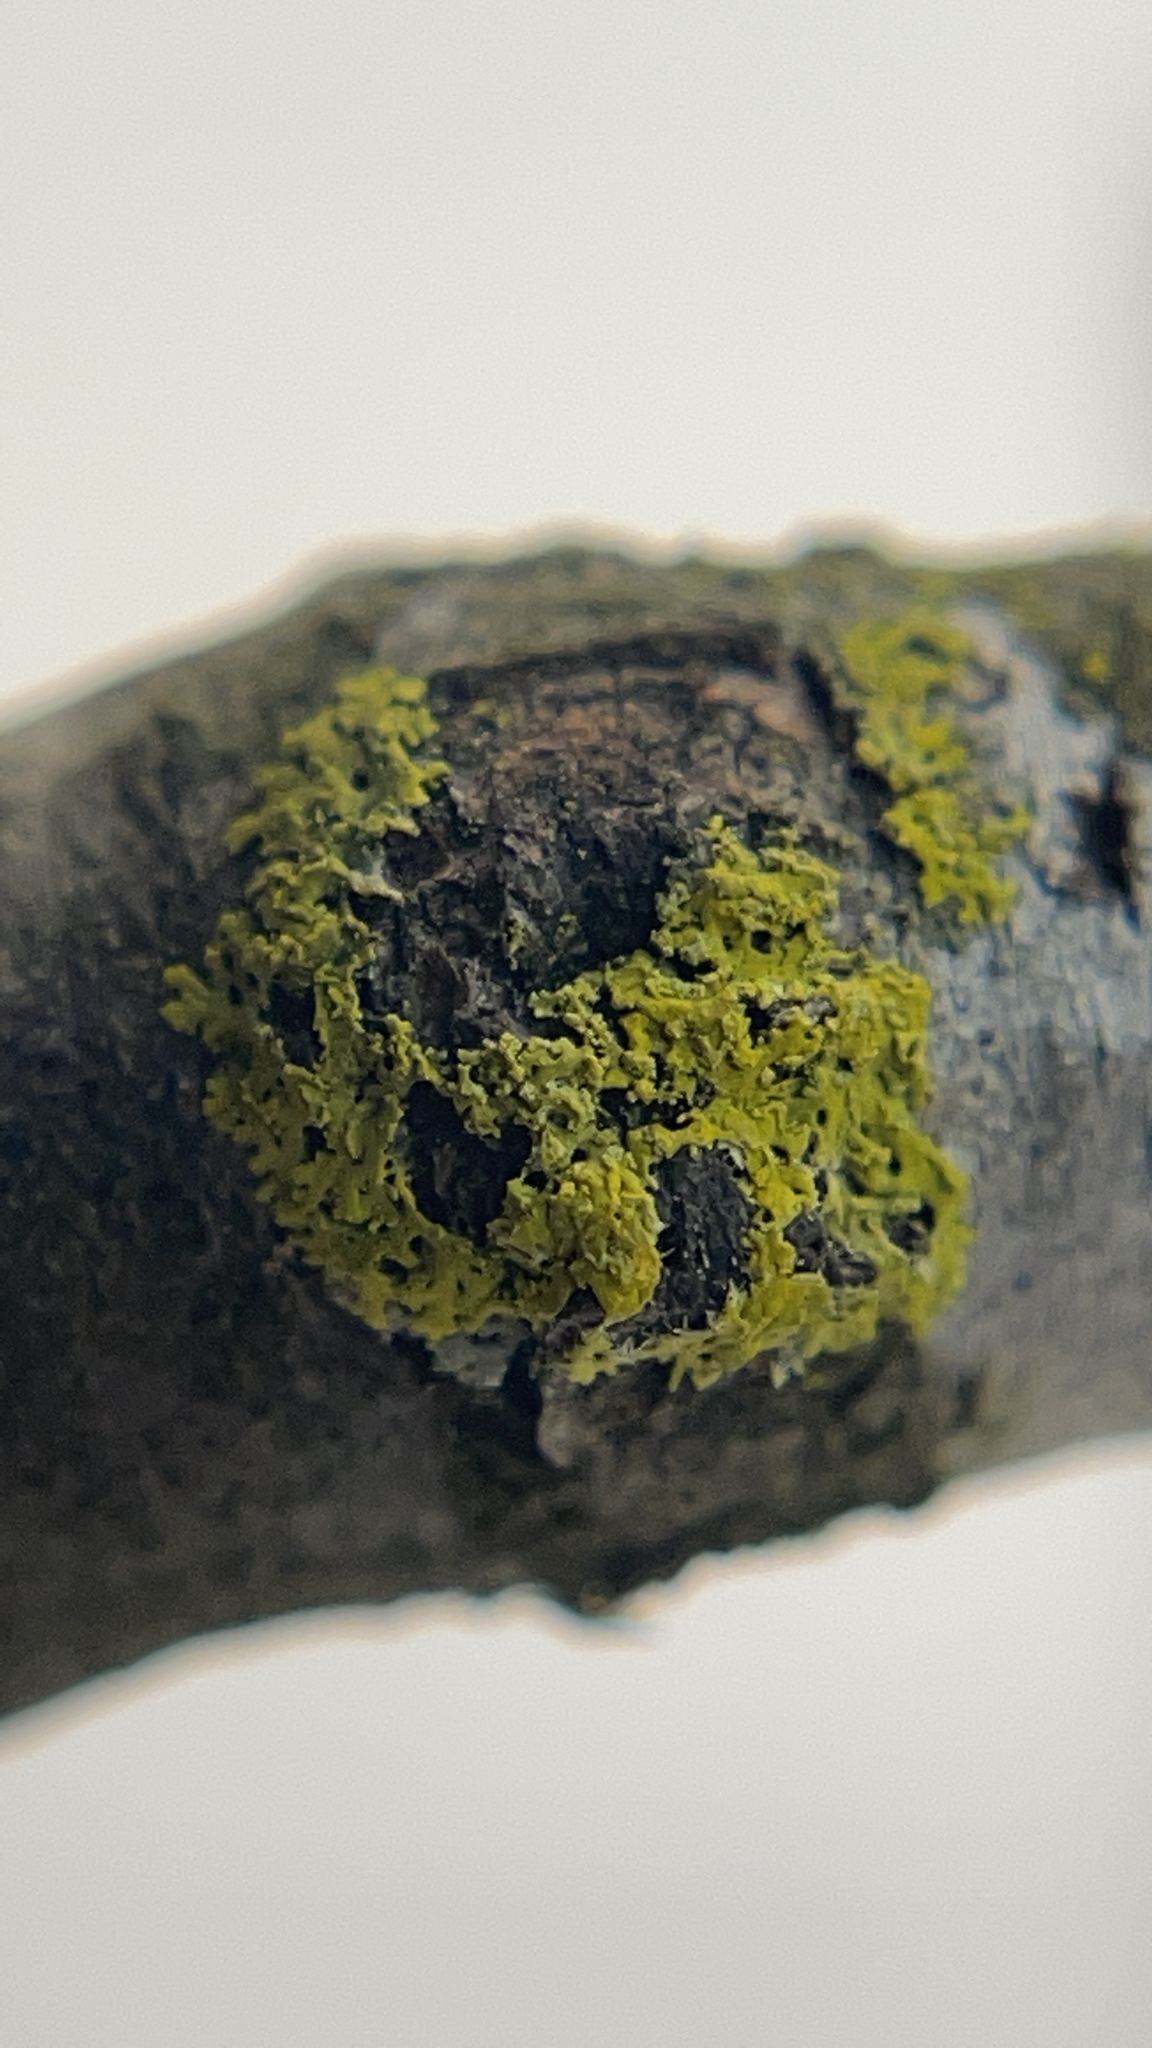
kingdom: Fungi
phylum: Ascomycota
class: Candelariomycetes
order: Candelariales
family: Candelariaceae
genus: Candelaria
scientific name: Candelaria concolor
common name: Candleflame lichen
